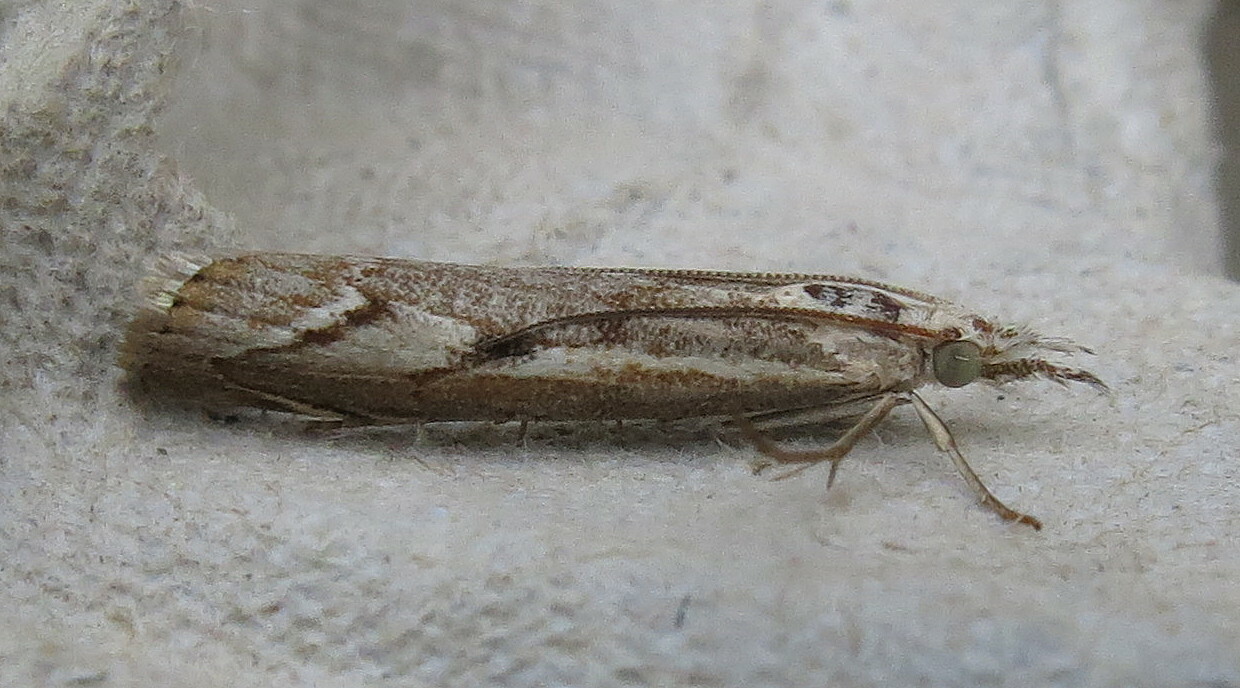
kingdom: Animalia
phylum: Arthropoda
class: Insecta
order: Lepidoptera
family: Crambidae
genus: Agriphila
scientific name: Agriphila geniculea
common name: Elbow-stripe grass-veneer
